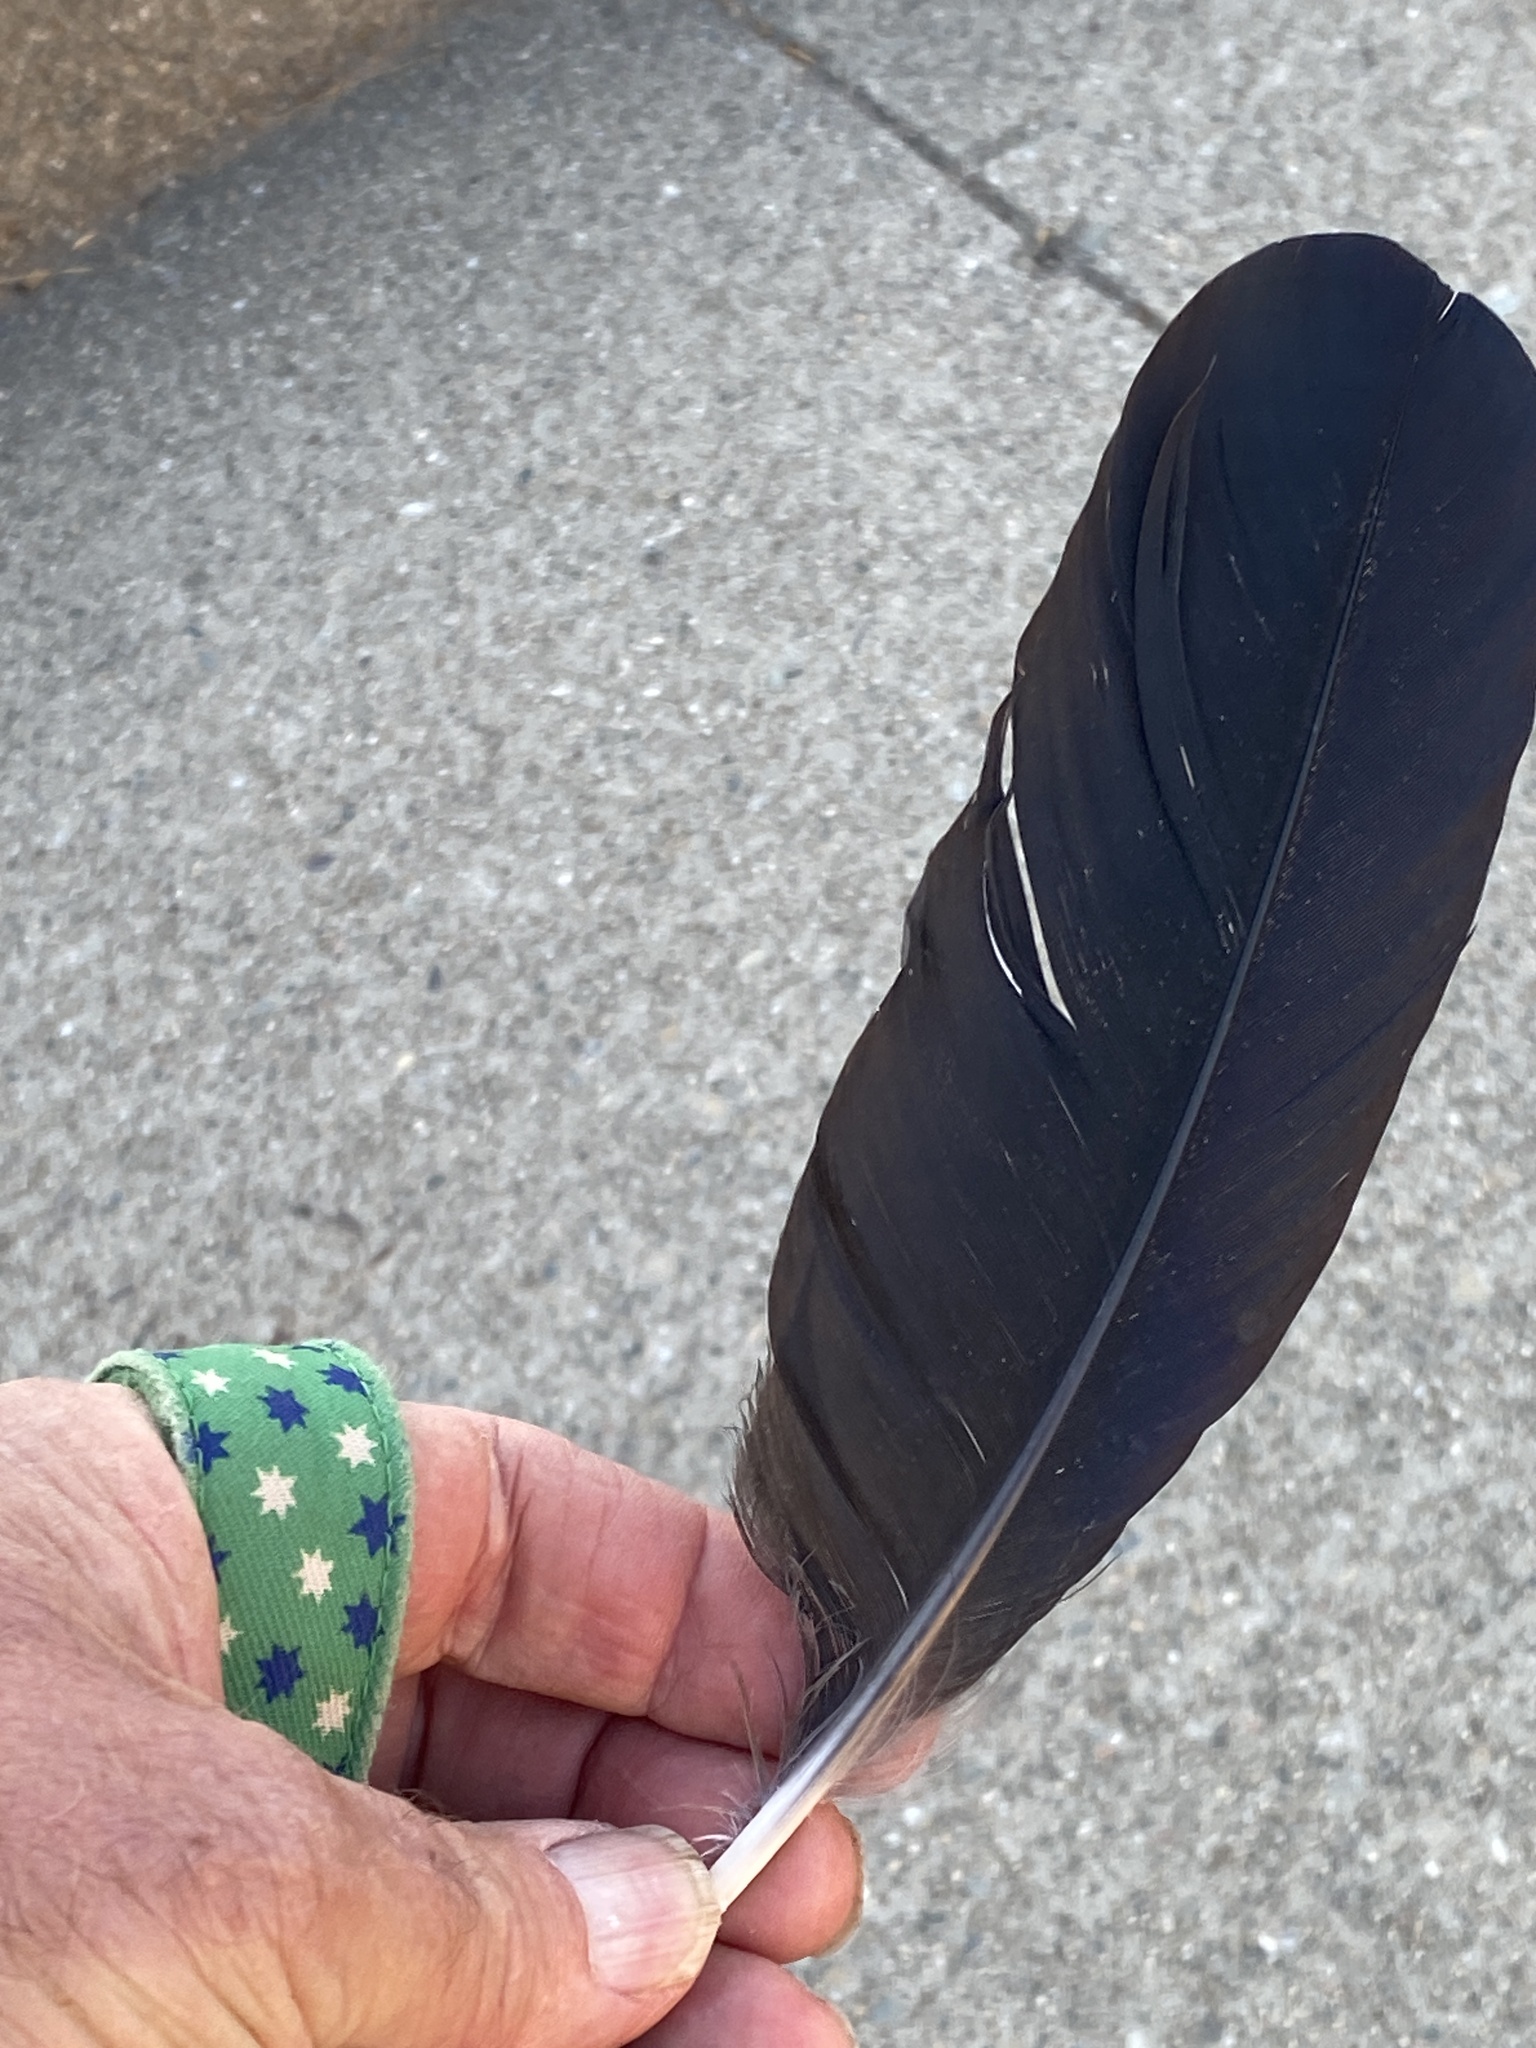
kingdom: Animalia
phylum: Chordata
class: Aves
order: Passeriformes
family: Corvidae
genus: Corvus
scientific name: Corvus corax
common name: Common raven
